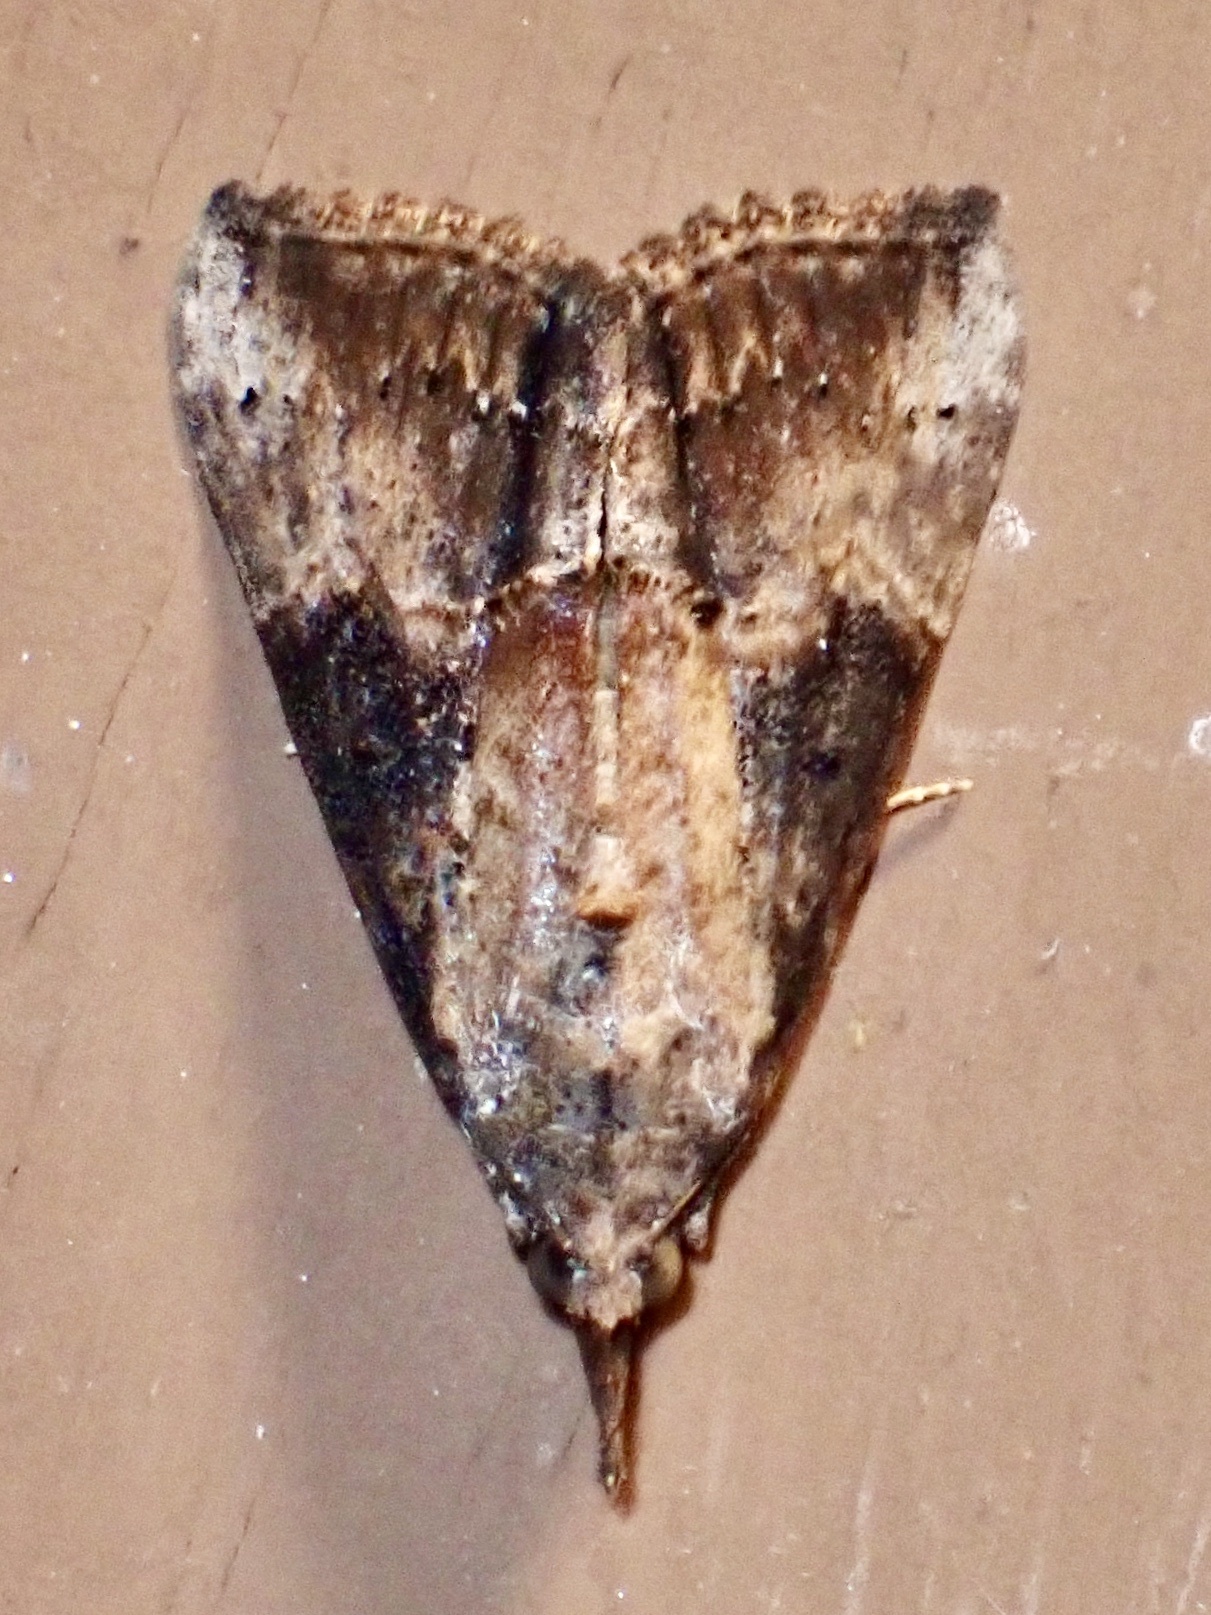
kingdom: Animalia
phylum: Arthropoda
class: Insecta
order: Lepidoptera
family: Erebidae
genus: Hypena
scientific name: Hypena scabra
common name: Green cloverworm
